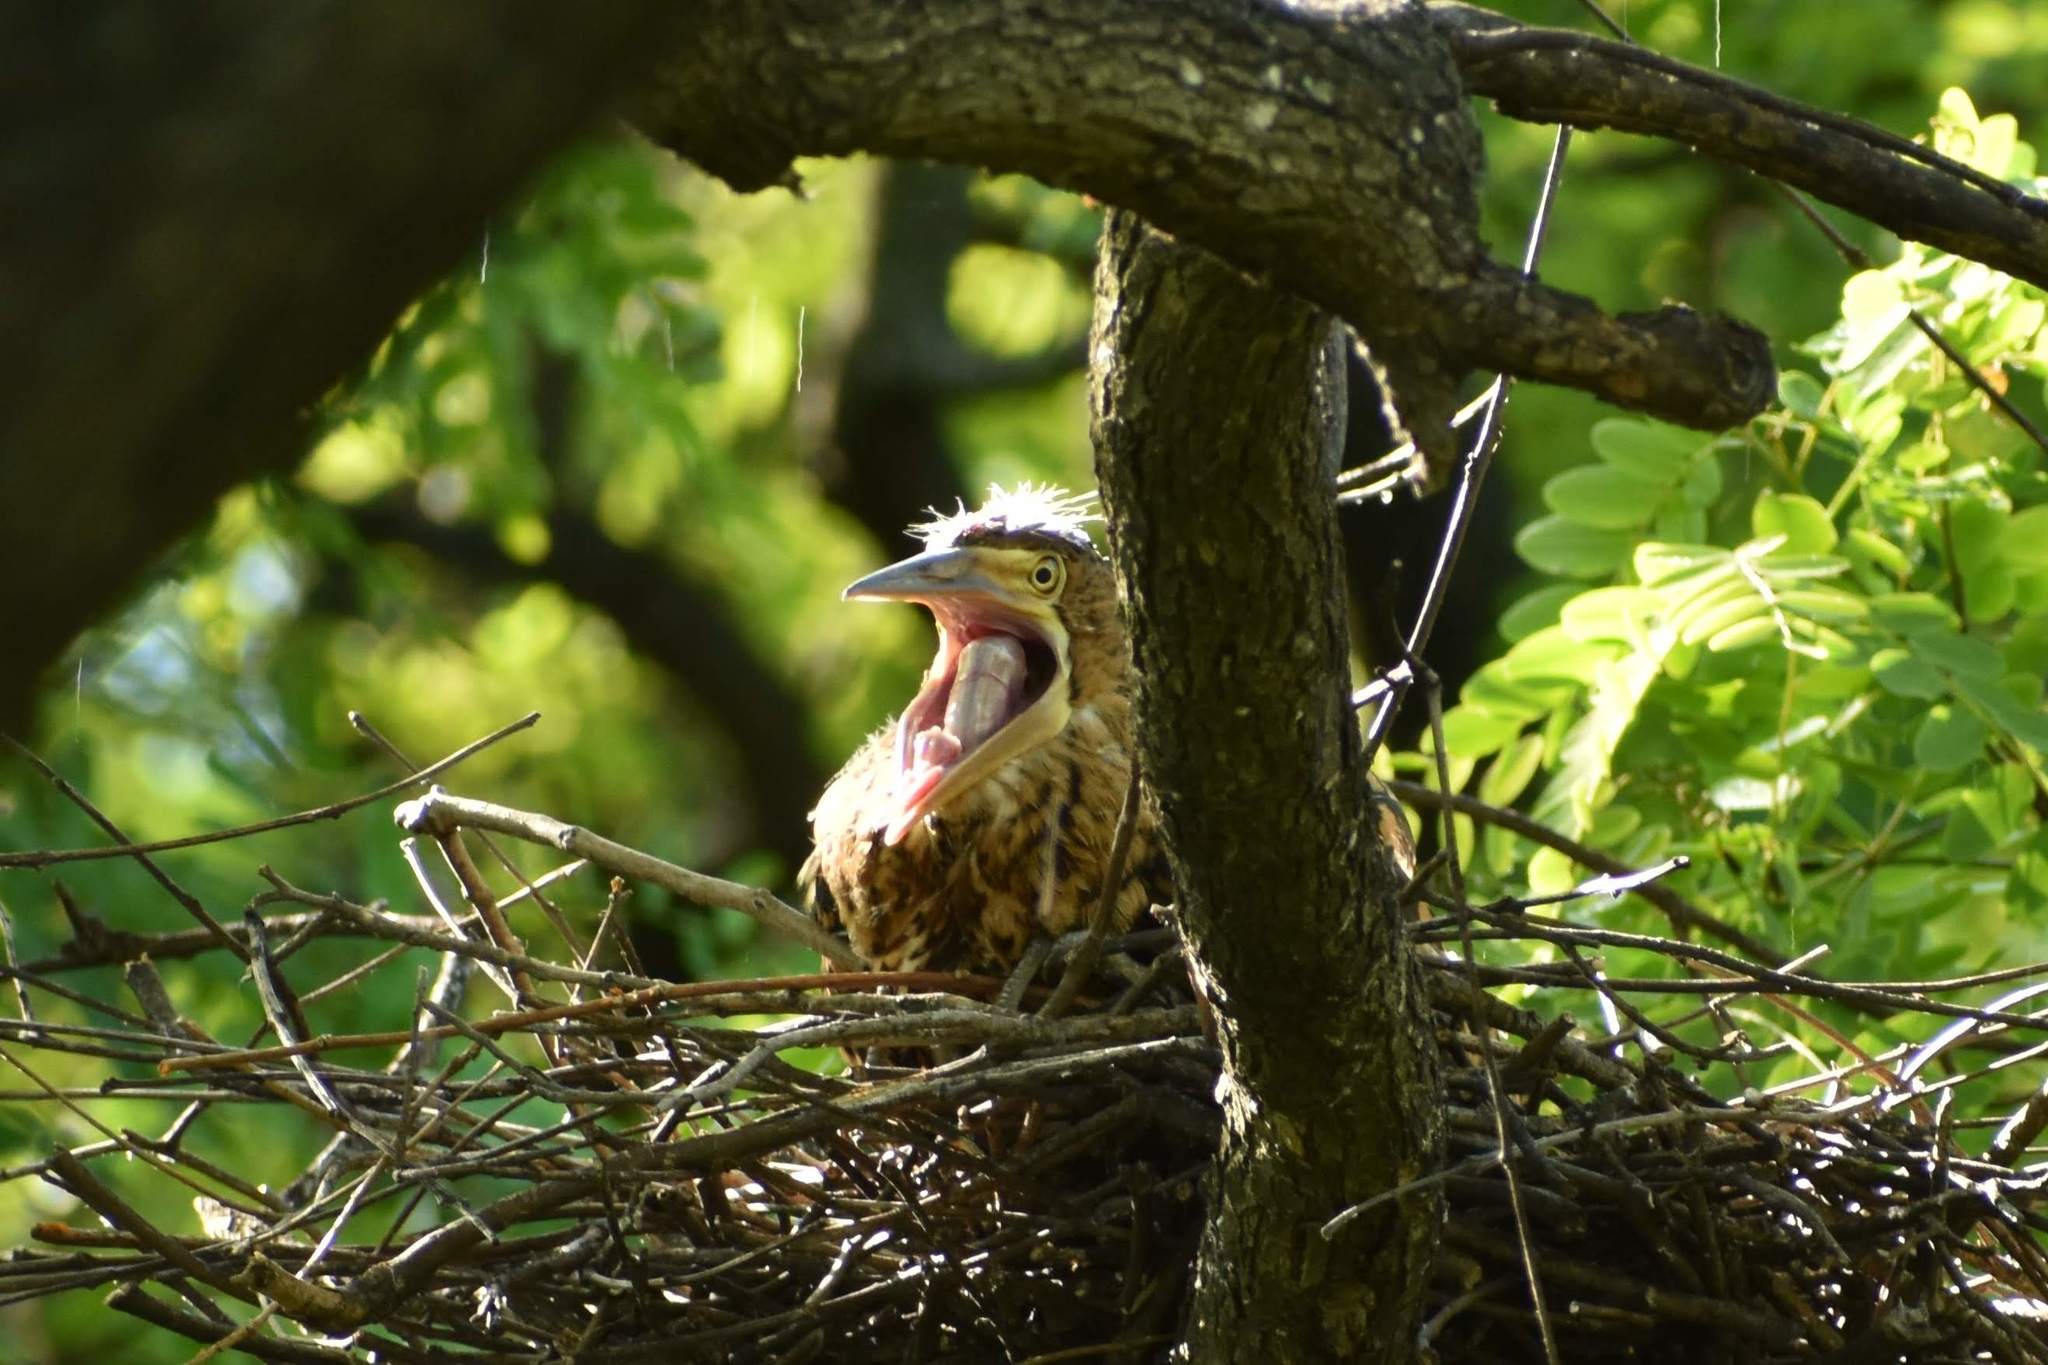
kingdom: Animalia
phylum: Chordata
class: Aves
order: Pelecaniformes
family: Ardeidae
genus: Tigrisoma
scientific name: Tigrisoma lineatum
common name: Rufescent tiger-heron
